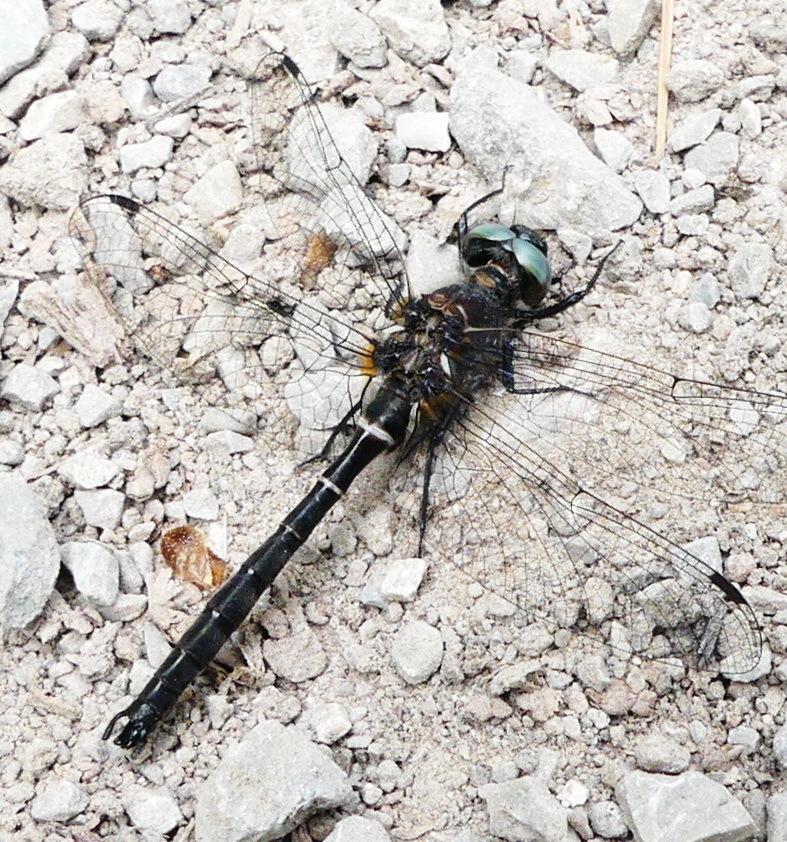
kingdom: Animalia
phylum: Arthropoda
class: Insecta
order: Odonata
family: Corduliidae
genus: Williamsonia
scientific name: Williamsonia fletcheri
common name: Ebony boghaunter
